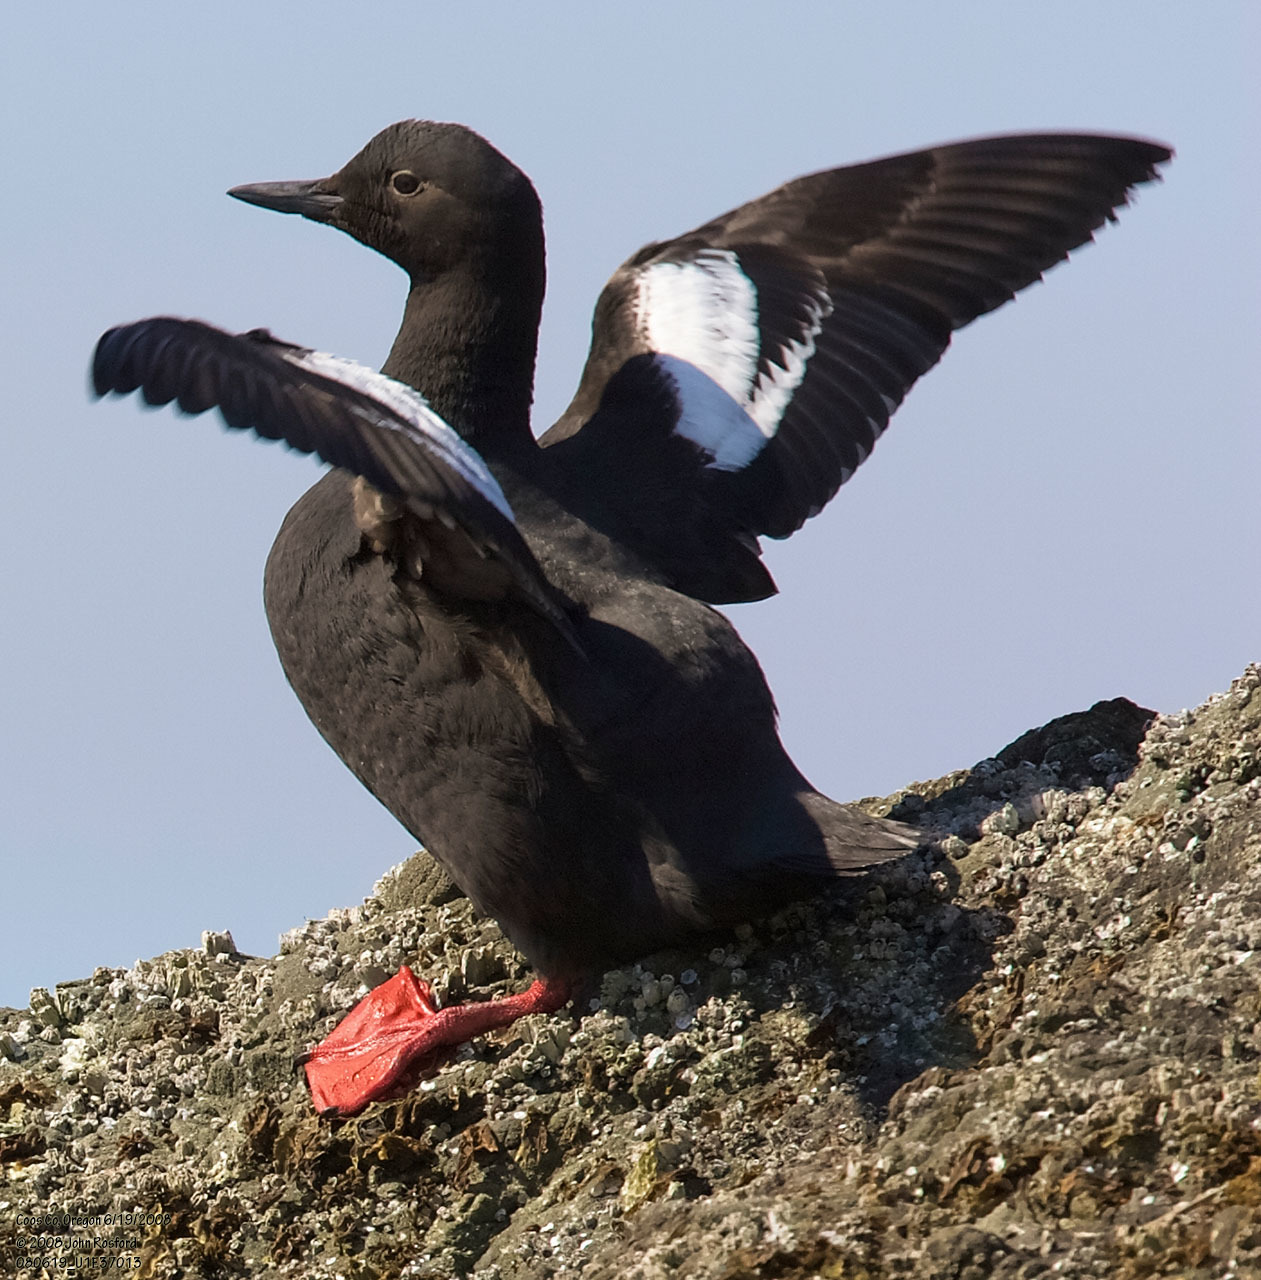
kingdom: Animalia
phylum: Chordata
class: Aves
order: Charadriiformes
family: Alcidae
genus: Cepphus
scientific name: Cepphus columba
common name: Pigeon guillemot
